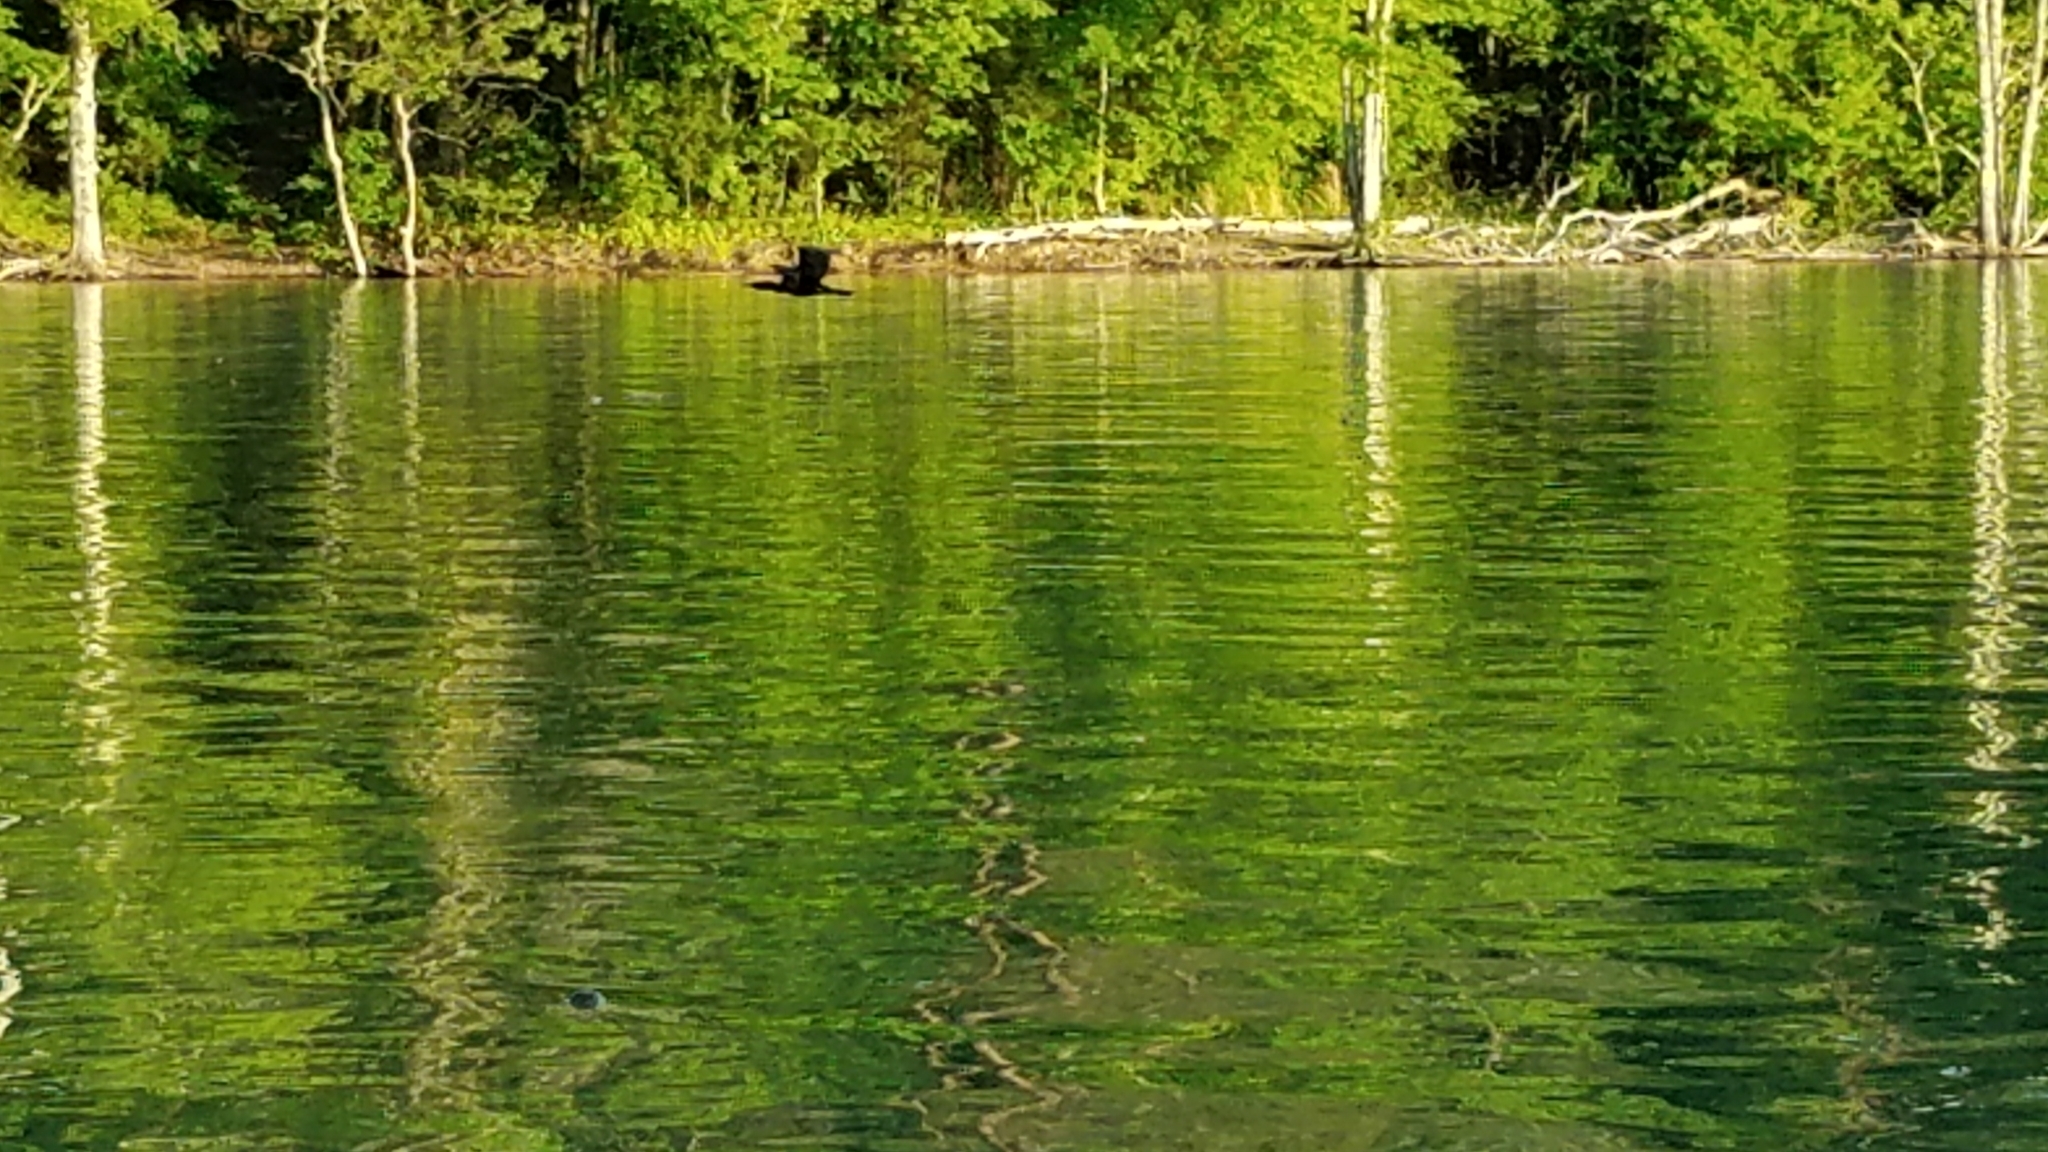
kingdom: Animalia
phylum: Chordata
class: Aves
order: Suliformes
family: Phalacrocoracidae
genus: Phalacrocorax
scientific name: Phalacrocorax auritus
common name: Double-crested cormorant
